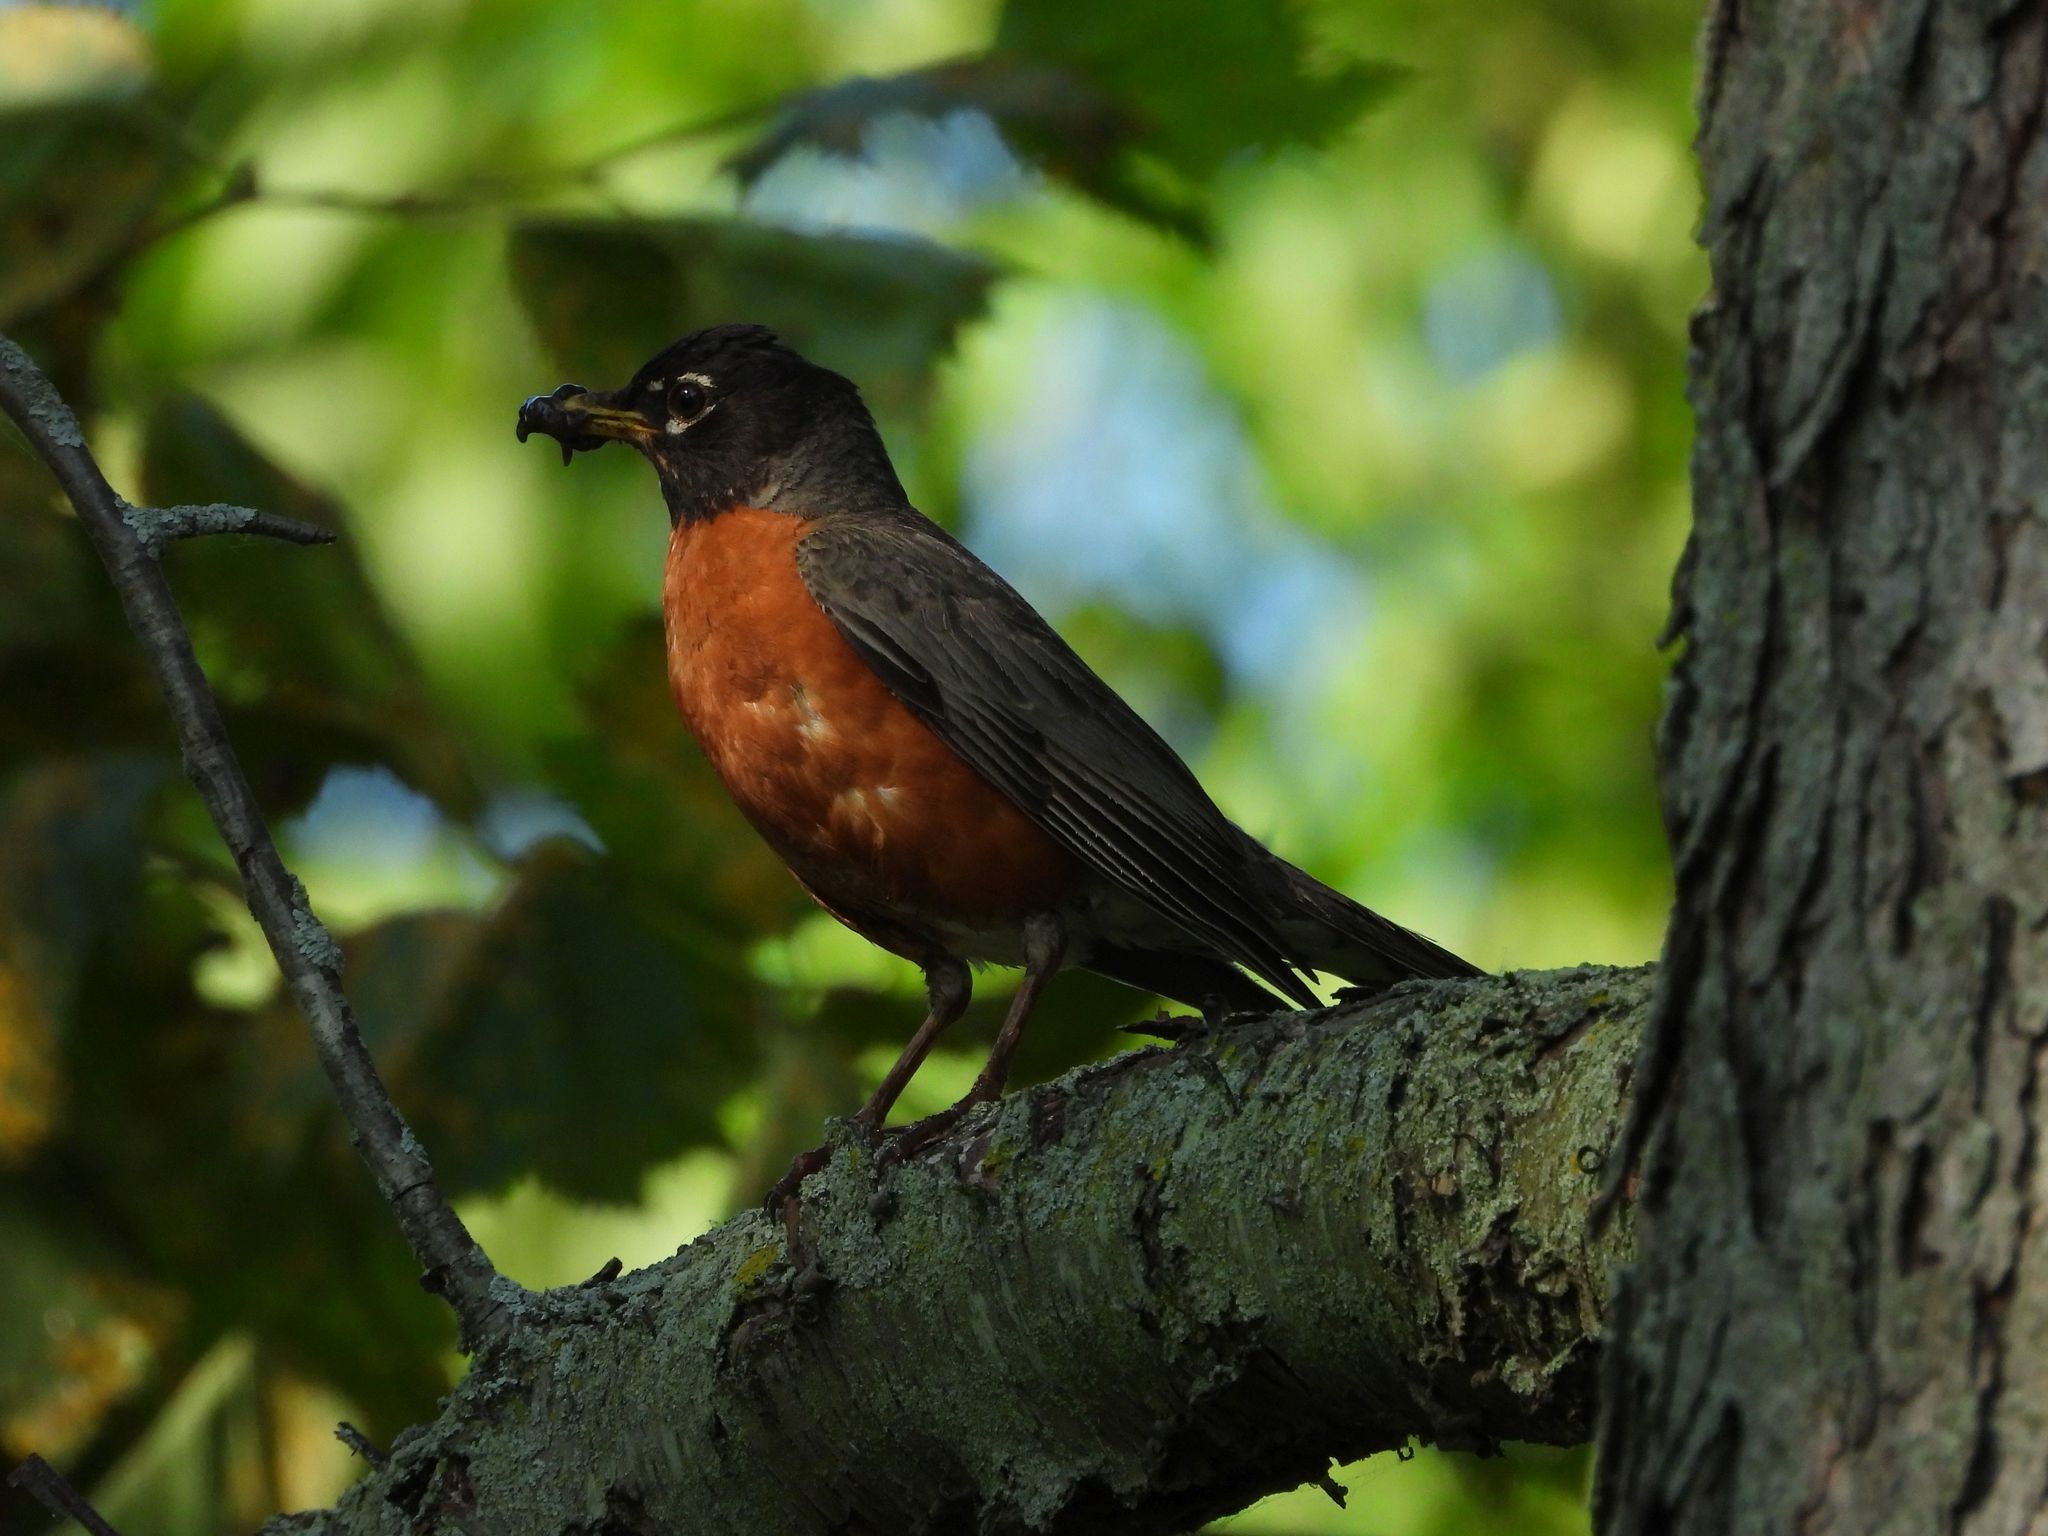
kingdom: Animalia
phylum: Chordata
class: Aves
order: Passeriformes
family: Turdidae
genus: Turdus
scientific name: Turdus migratorius
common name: American robin
